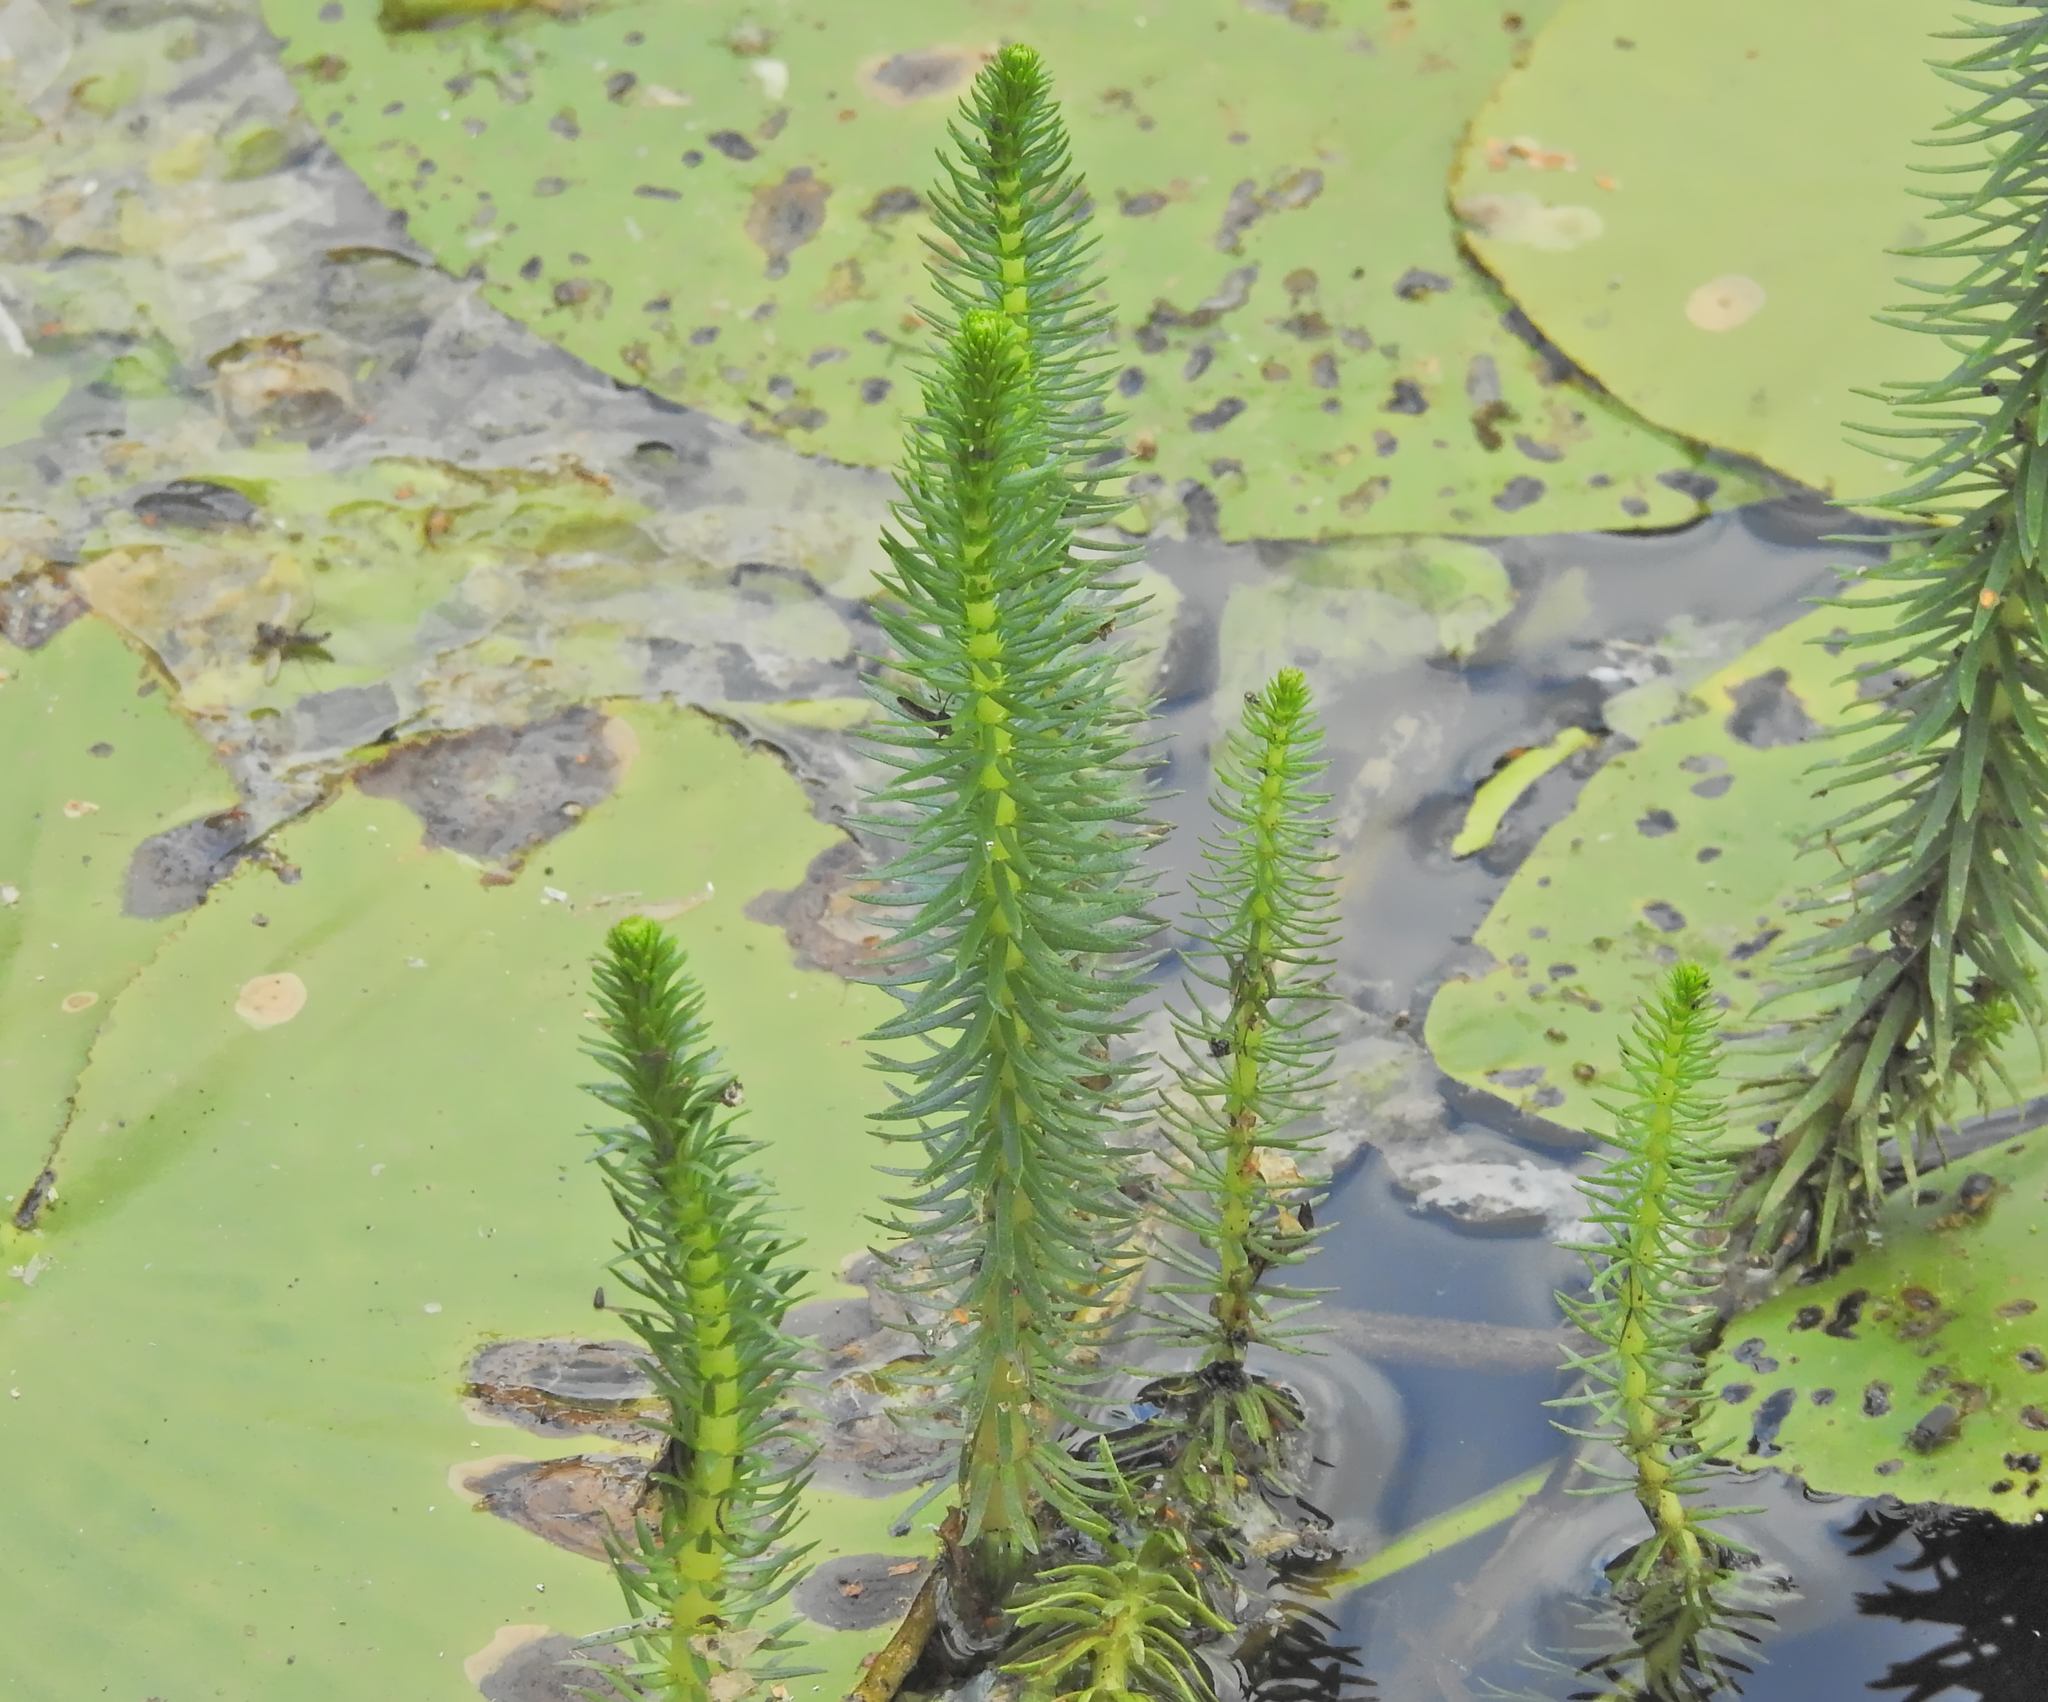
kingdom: Plantae
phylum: Tracheophyta
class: Magnoliopsida
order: Lamiales
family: Plantaginaceae
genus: Hippuris
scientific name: Hippuris vulgaris
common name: Mare's-tail
